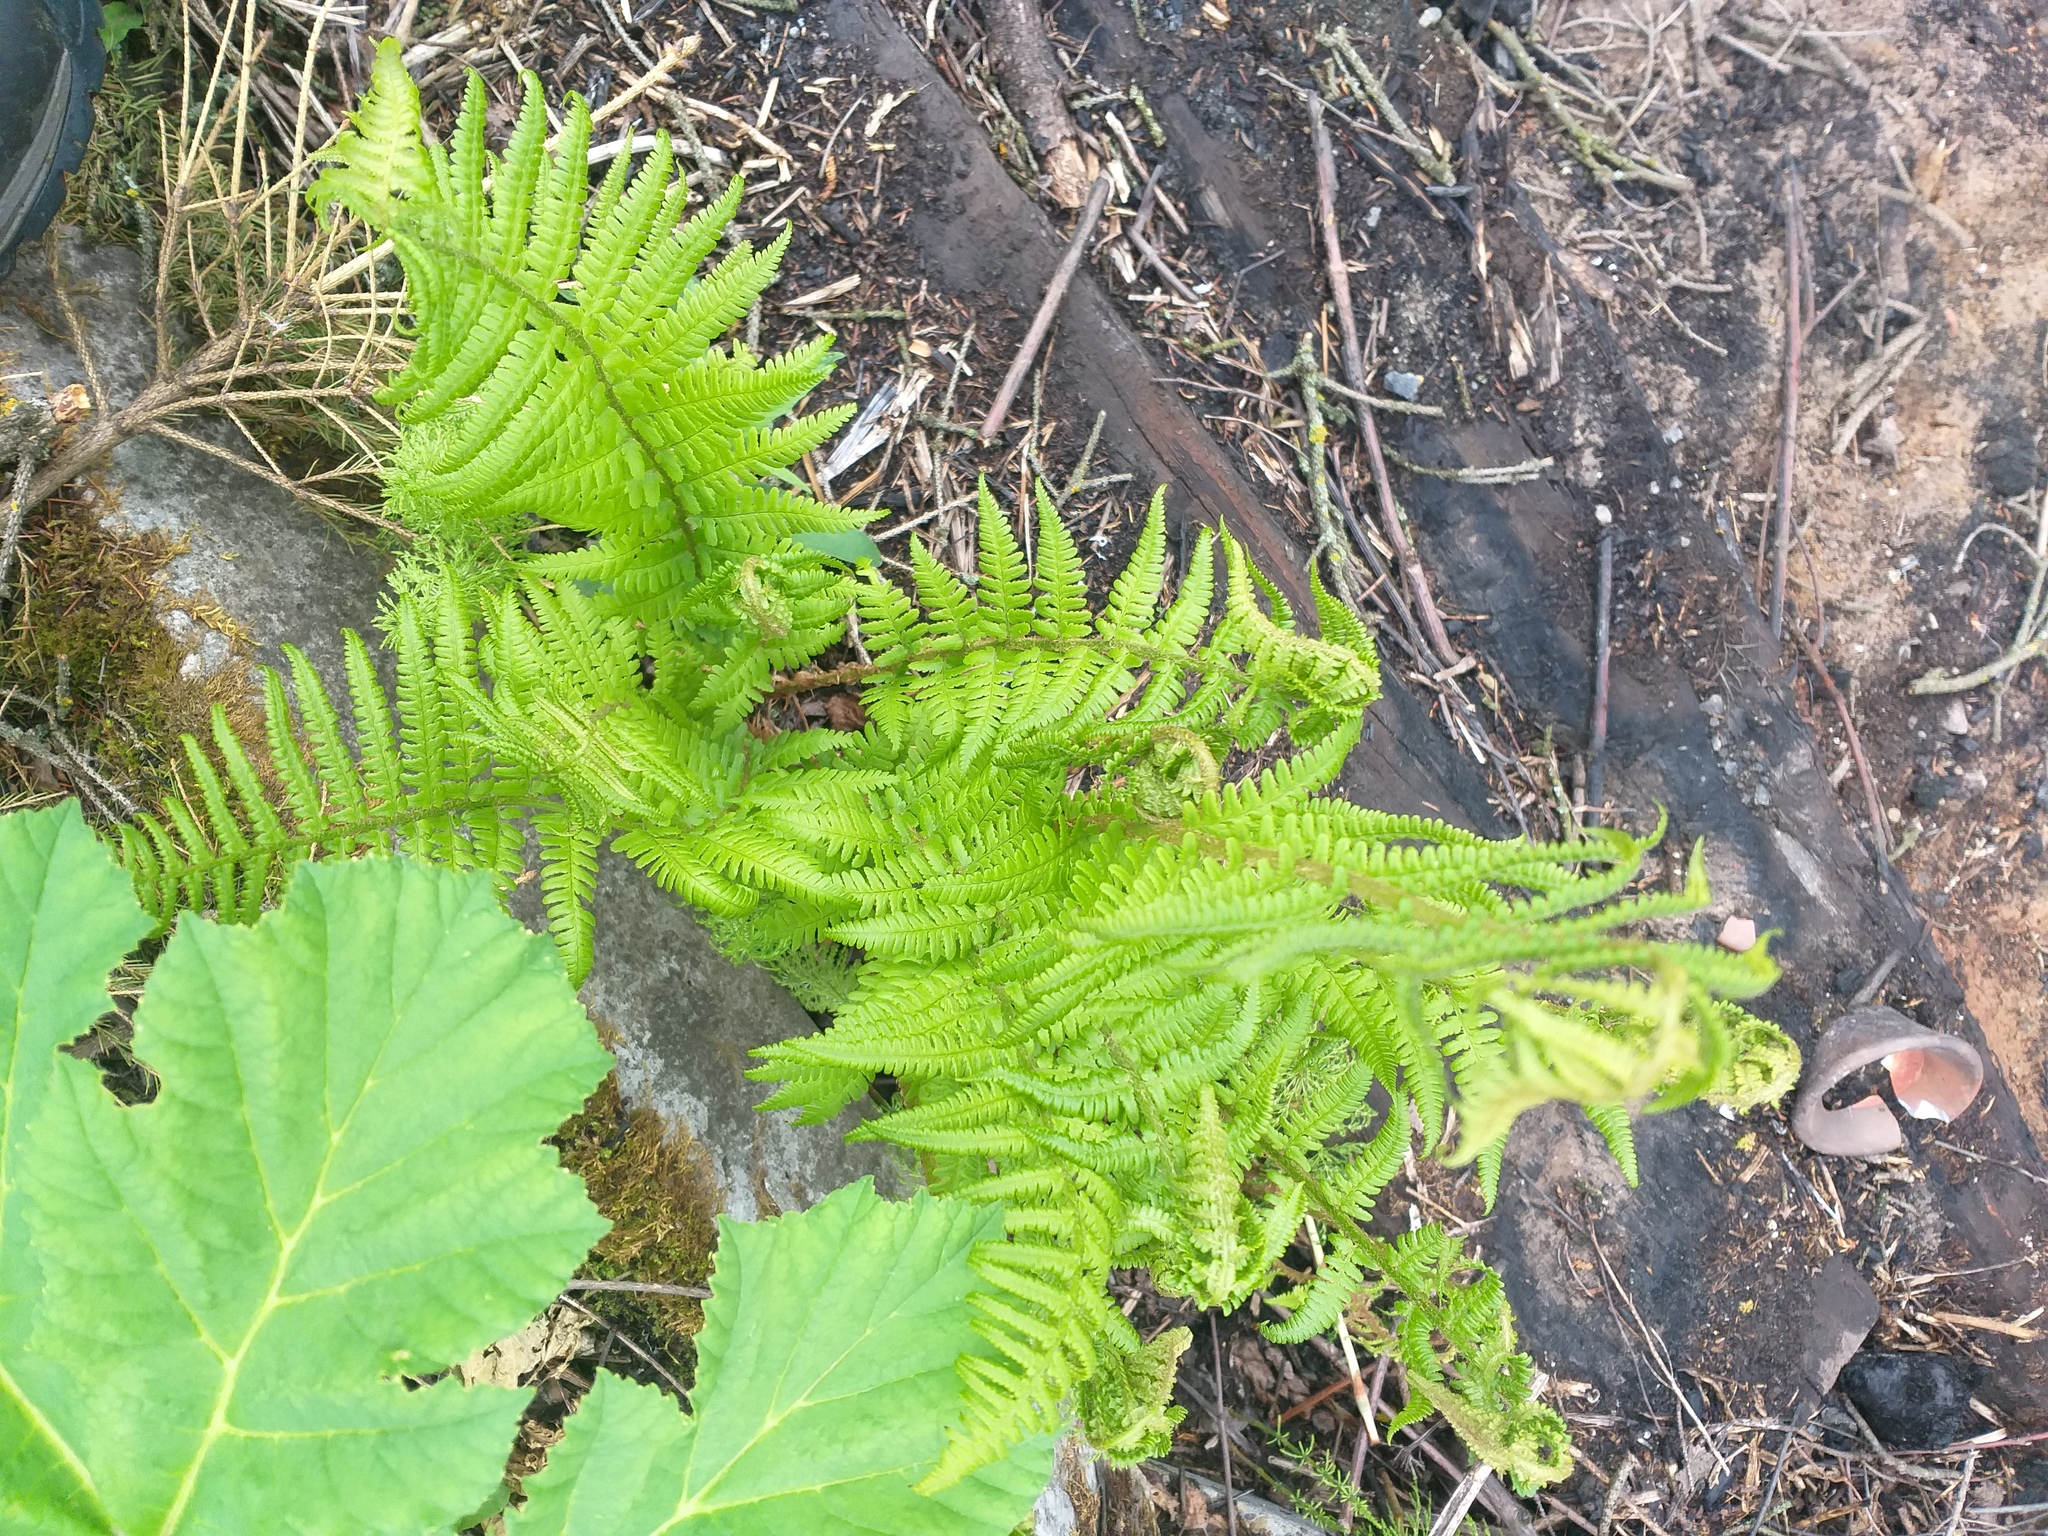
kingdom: Plantae
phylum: Tracheophyta
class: Polypodiopsida
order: Polypodiales
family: Dryopteridaceae
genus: Dryopteris
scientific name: Dryopteris filix-mas
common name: Male fern
